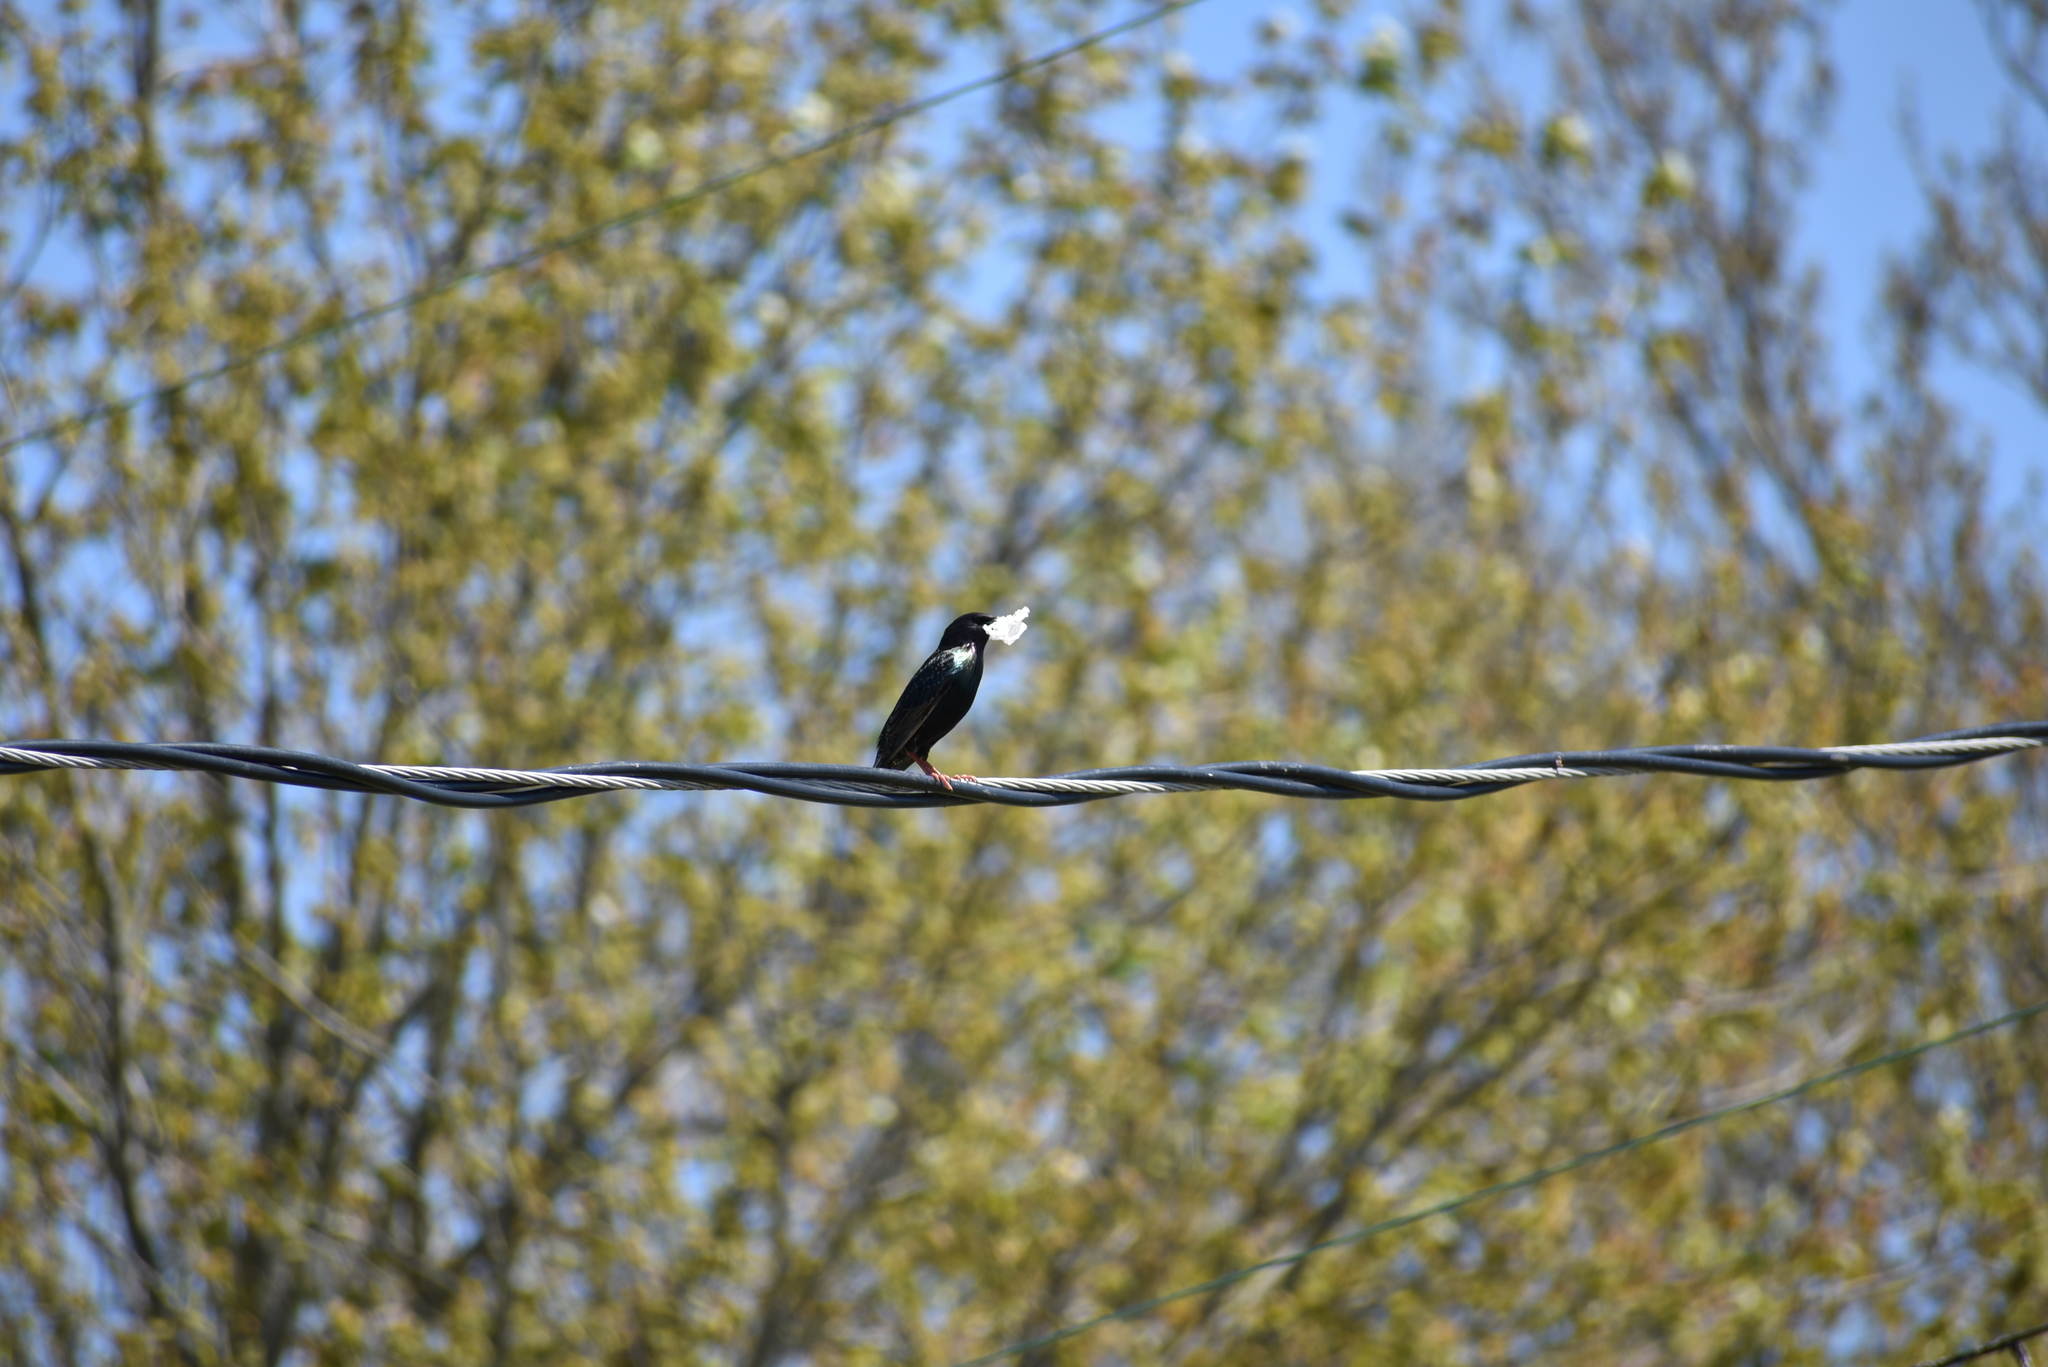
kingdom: Animalia
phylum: Chordata
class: Aves
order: Passeriformes
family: Sturnidae
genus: Sturnus
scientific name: Sturnus vulgaris
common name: Common starling
